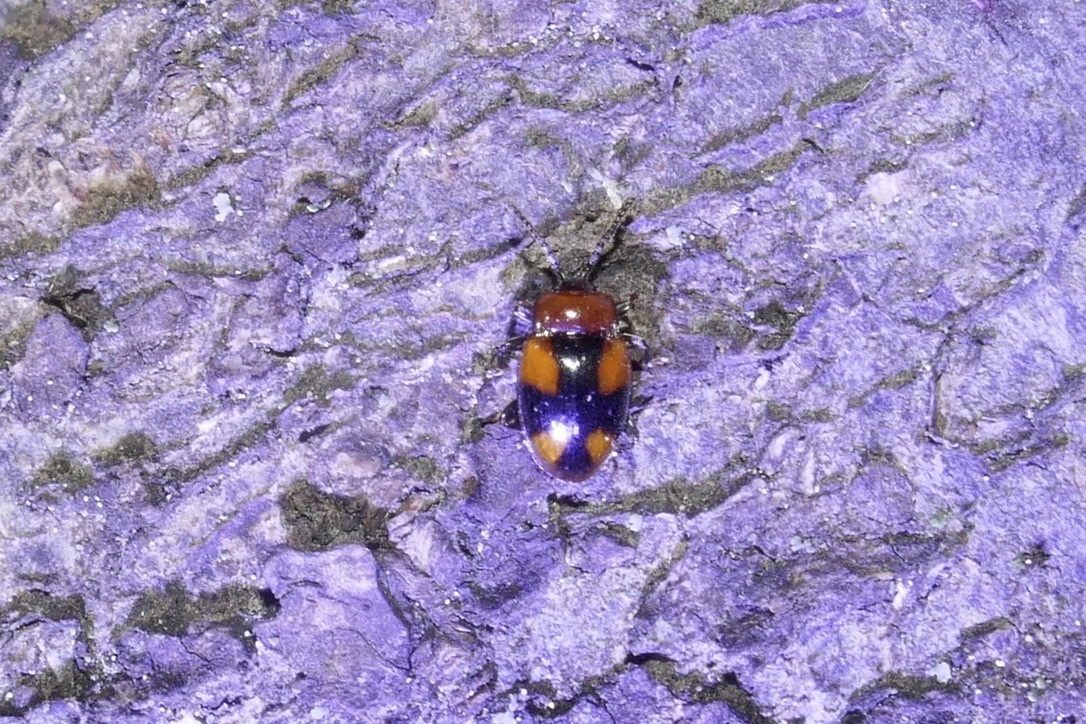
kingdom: Animalia
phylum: Arthropoda
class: Insecta
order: Coleoptera
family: Endomychidae
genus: Mycetina
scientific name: Mycetina cruciata
